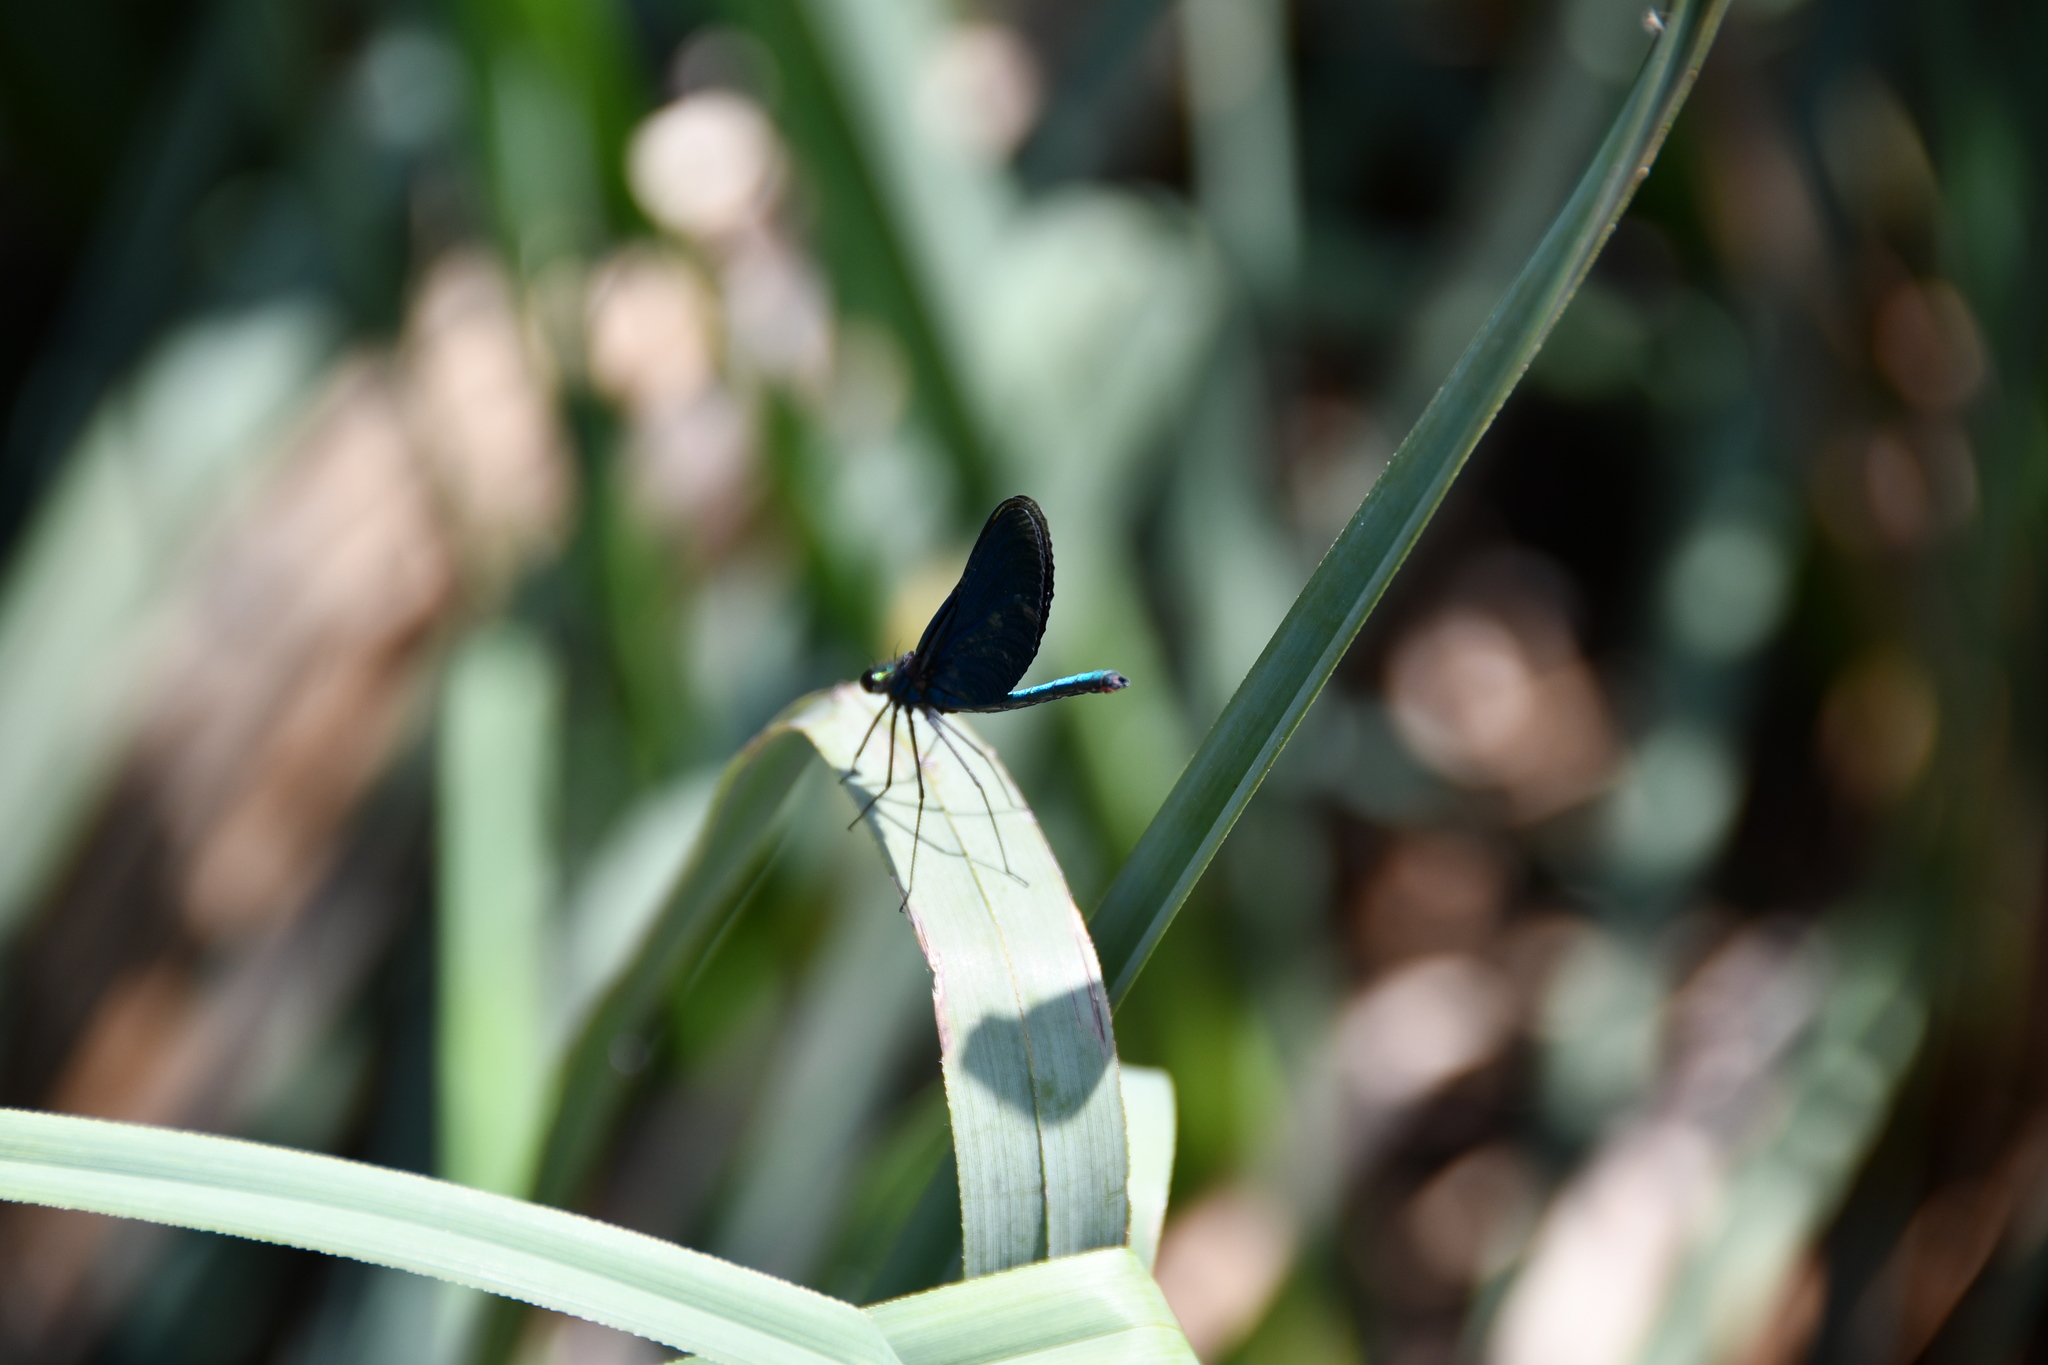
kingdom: Animalia
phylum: Arthropoda
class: Insecta
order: Odonata
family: Calopterygidae
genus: Calopteryx
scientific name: Calopteryx virgo
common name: Beautiful demoiselle
